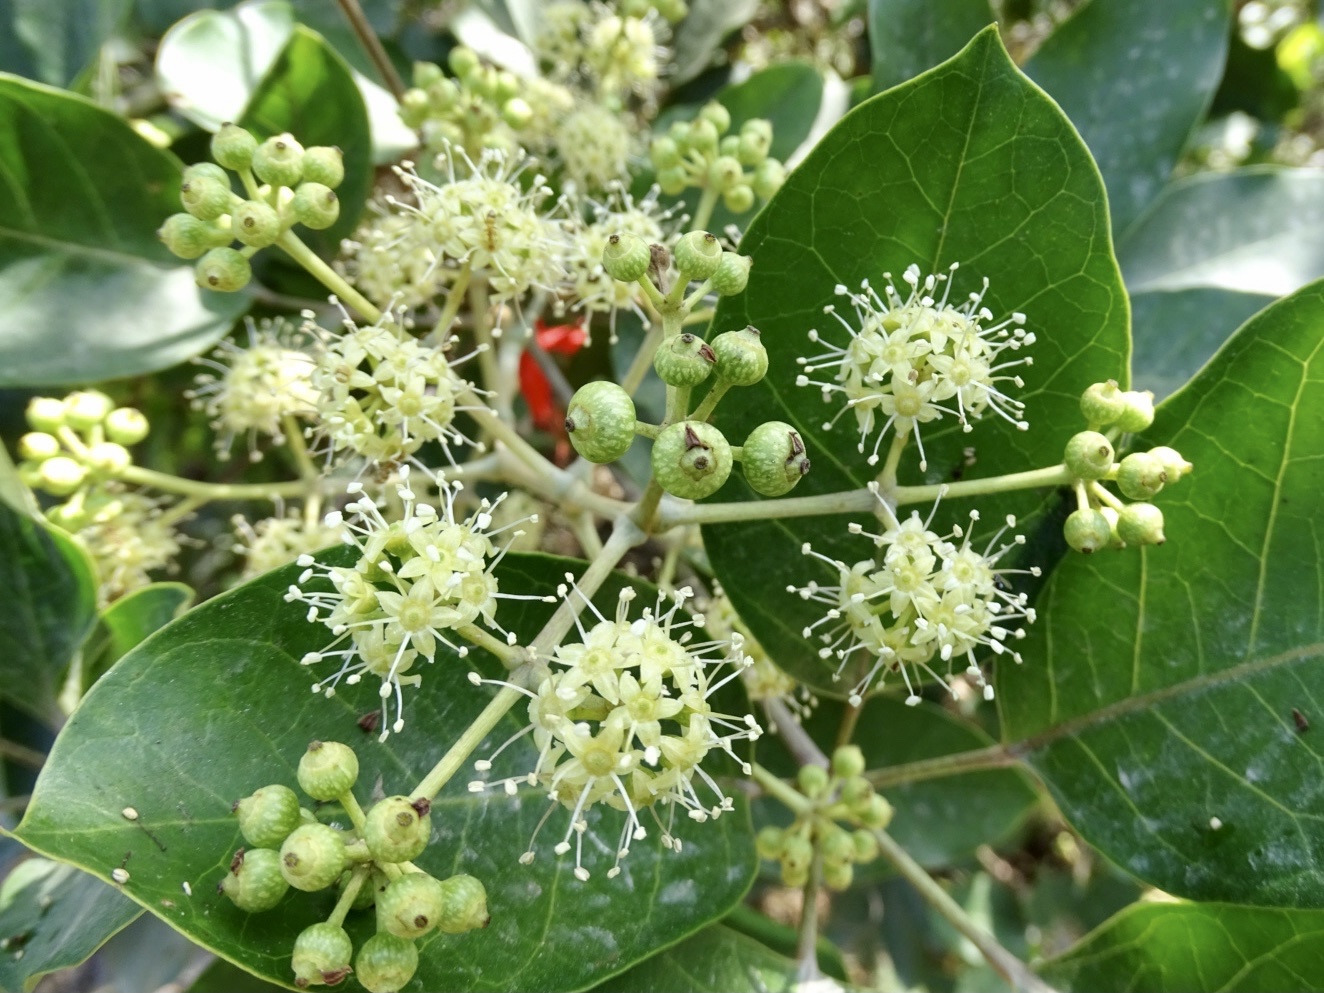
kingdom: Plantae
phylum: Tracheophyta
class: Magnoliopsida
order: Apiales
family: Araliaceae
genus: Heptapleurum
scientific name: Heptapleurum heptaphyllum
